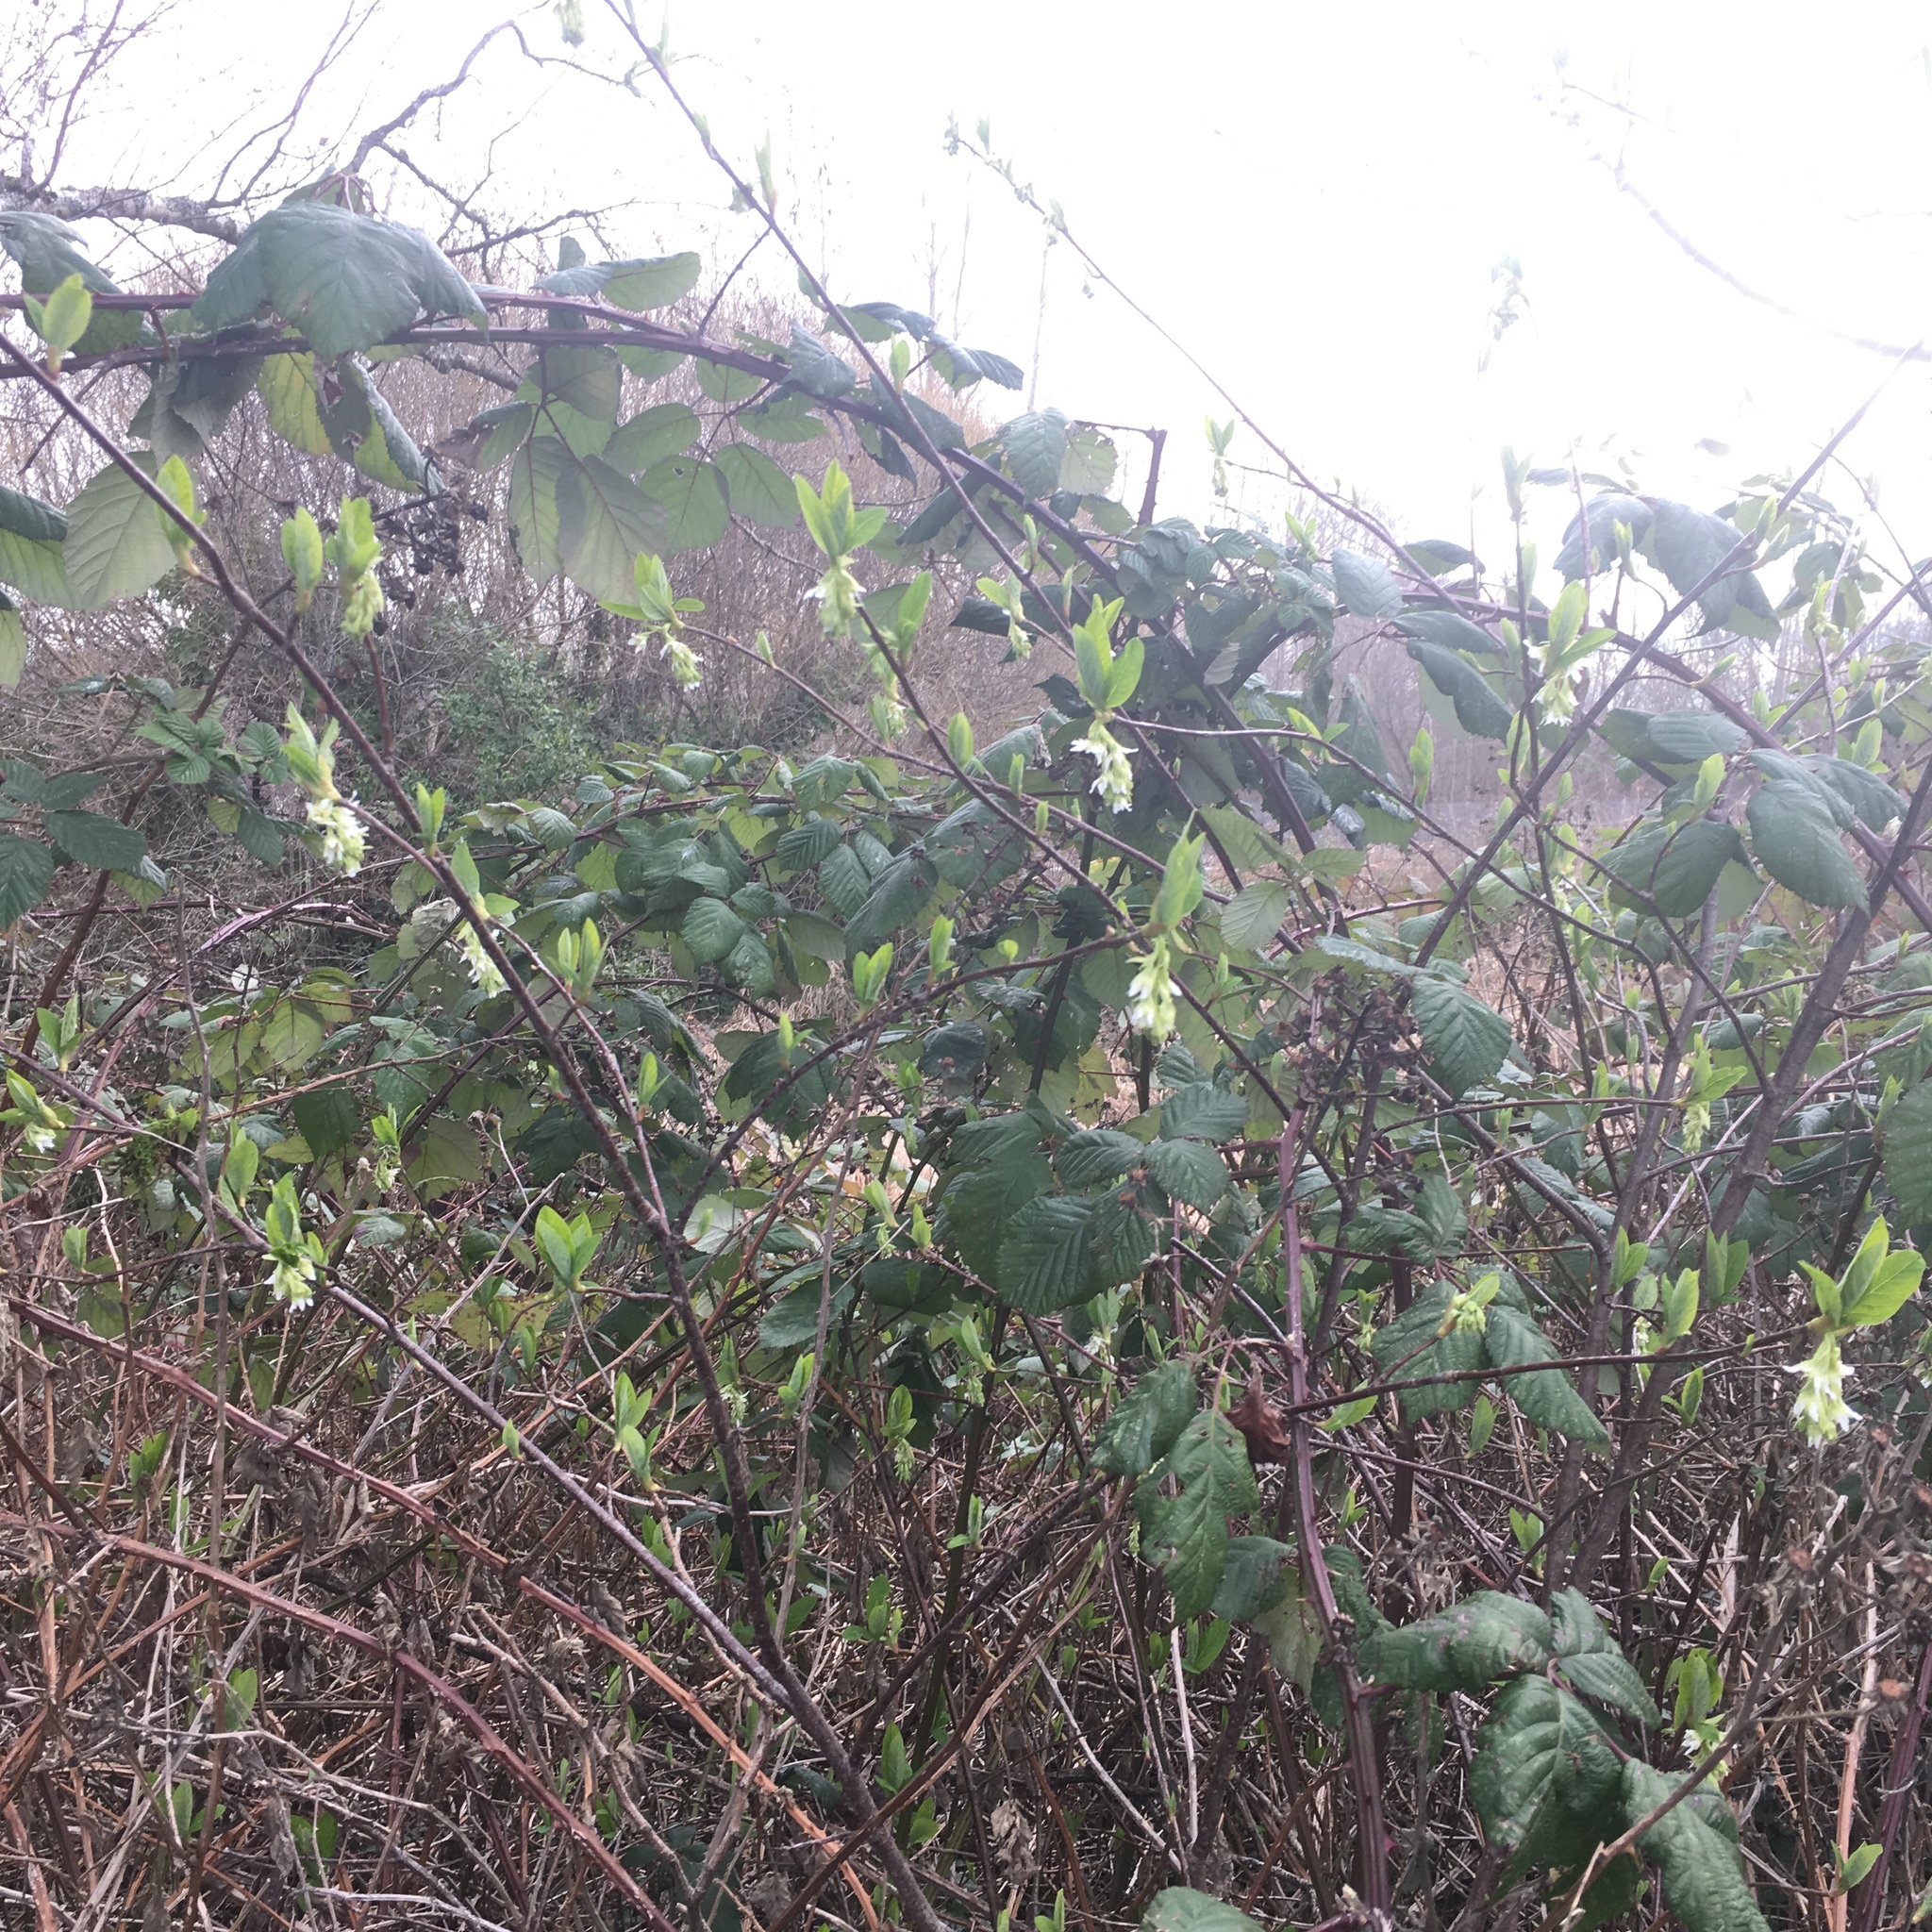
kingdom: Plantae
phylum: Tracheophyta
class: Magnoliopsida
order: Rosales
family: Rosaceae
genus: Oemleria
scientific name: Oemleria cerasiformis
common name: Osoberry
